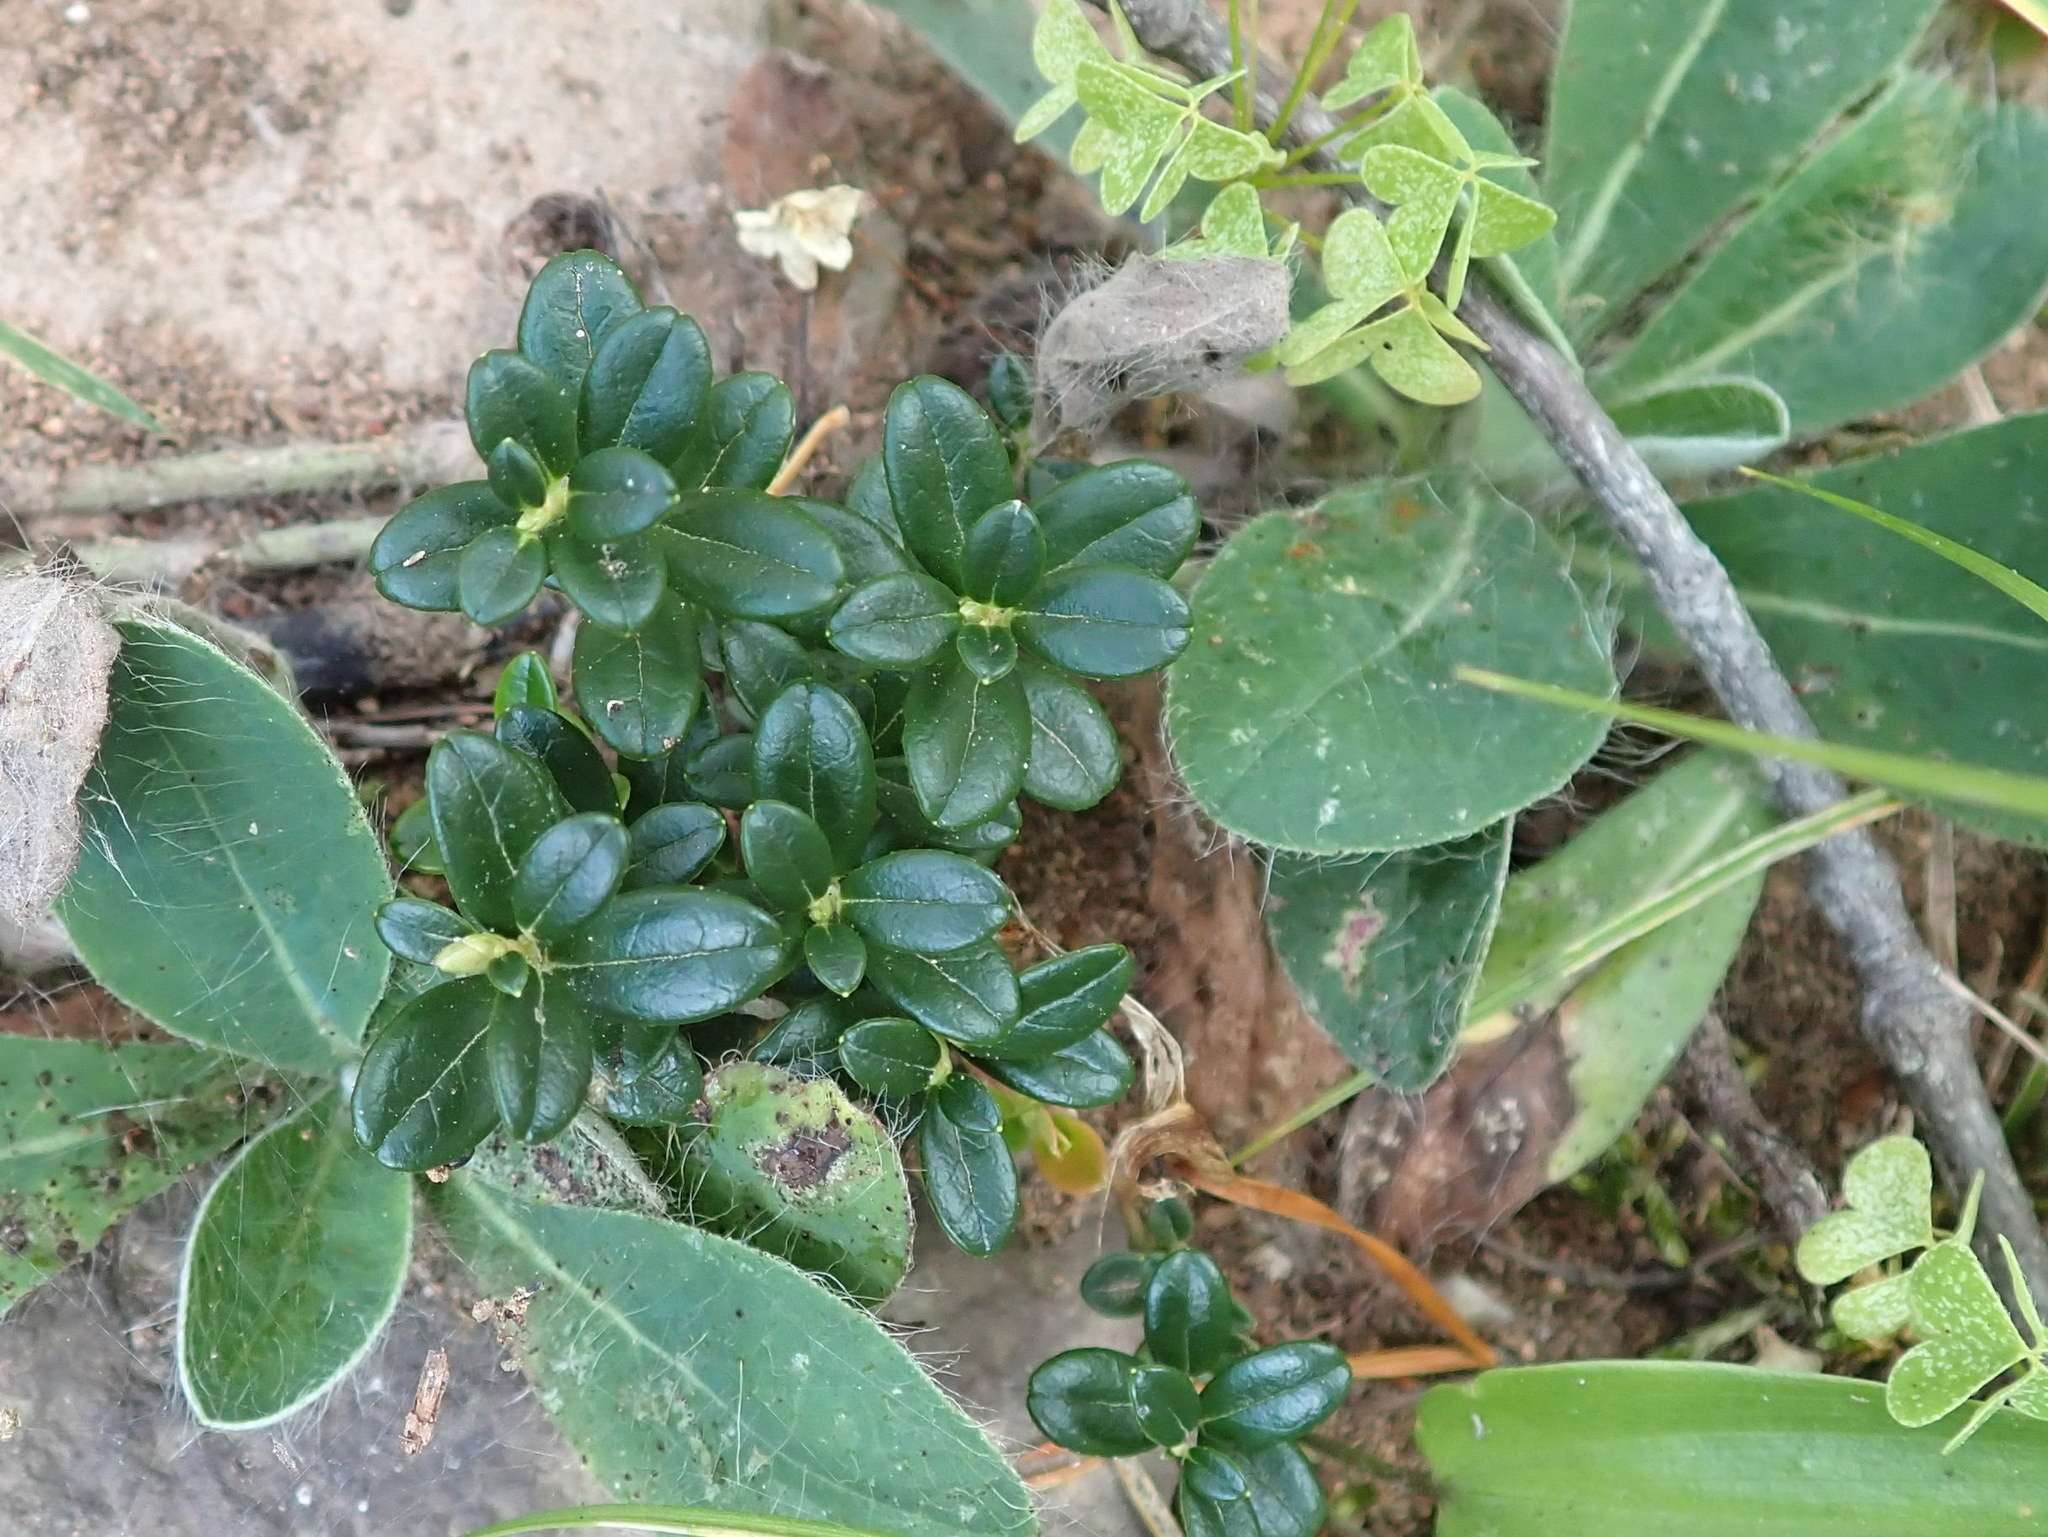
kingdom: Plantae
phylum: Tracheophyta
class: Magnoliopsida
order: Ericales
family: Ericaceae
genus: Vaccinium
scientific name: Vaccinium vitis-idaea
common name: Cowberry
